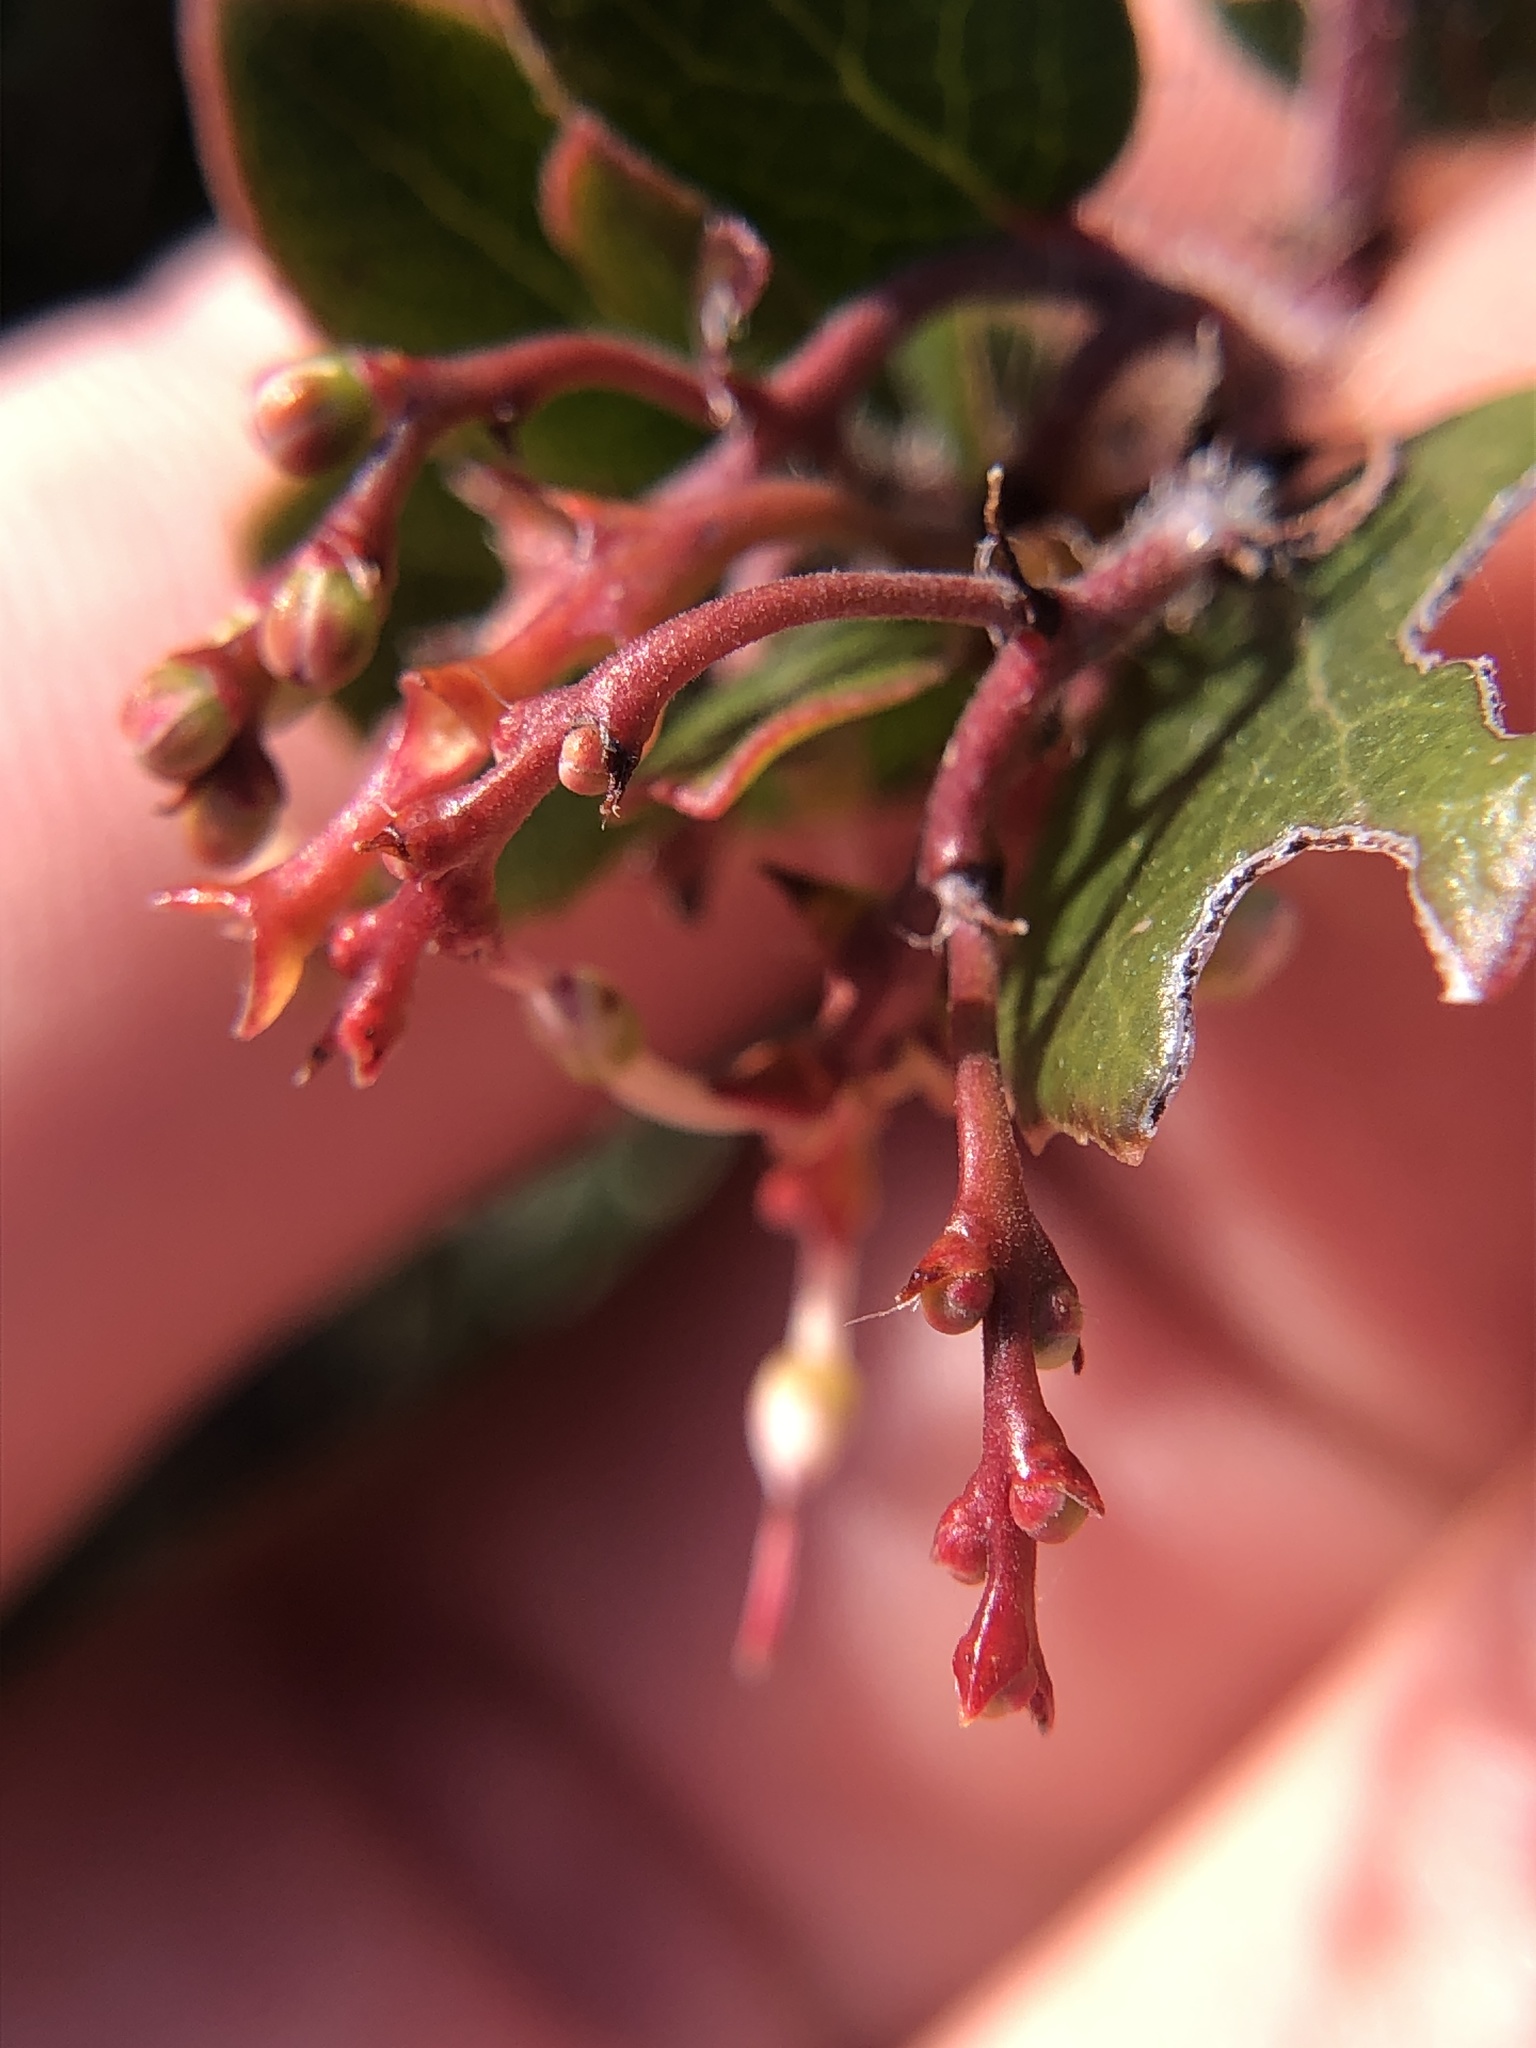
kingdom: Plantae
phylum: Tracheophyta
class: Magnoliopsida
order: Ericales
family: Ericaceae
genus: Arctostaphylos
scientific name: Arctostaphylos nummularia
